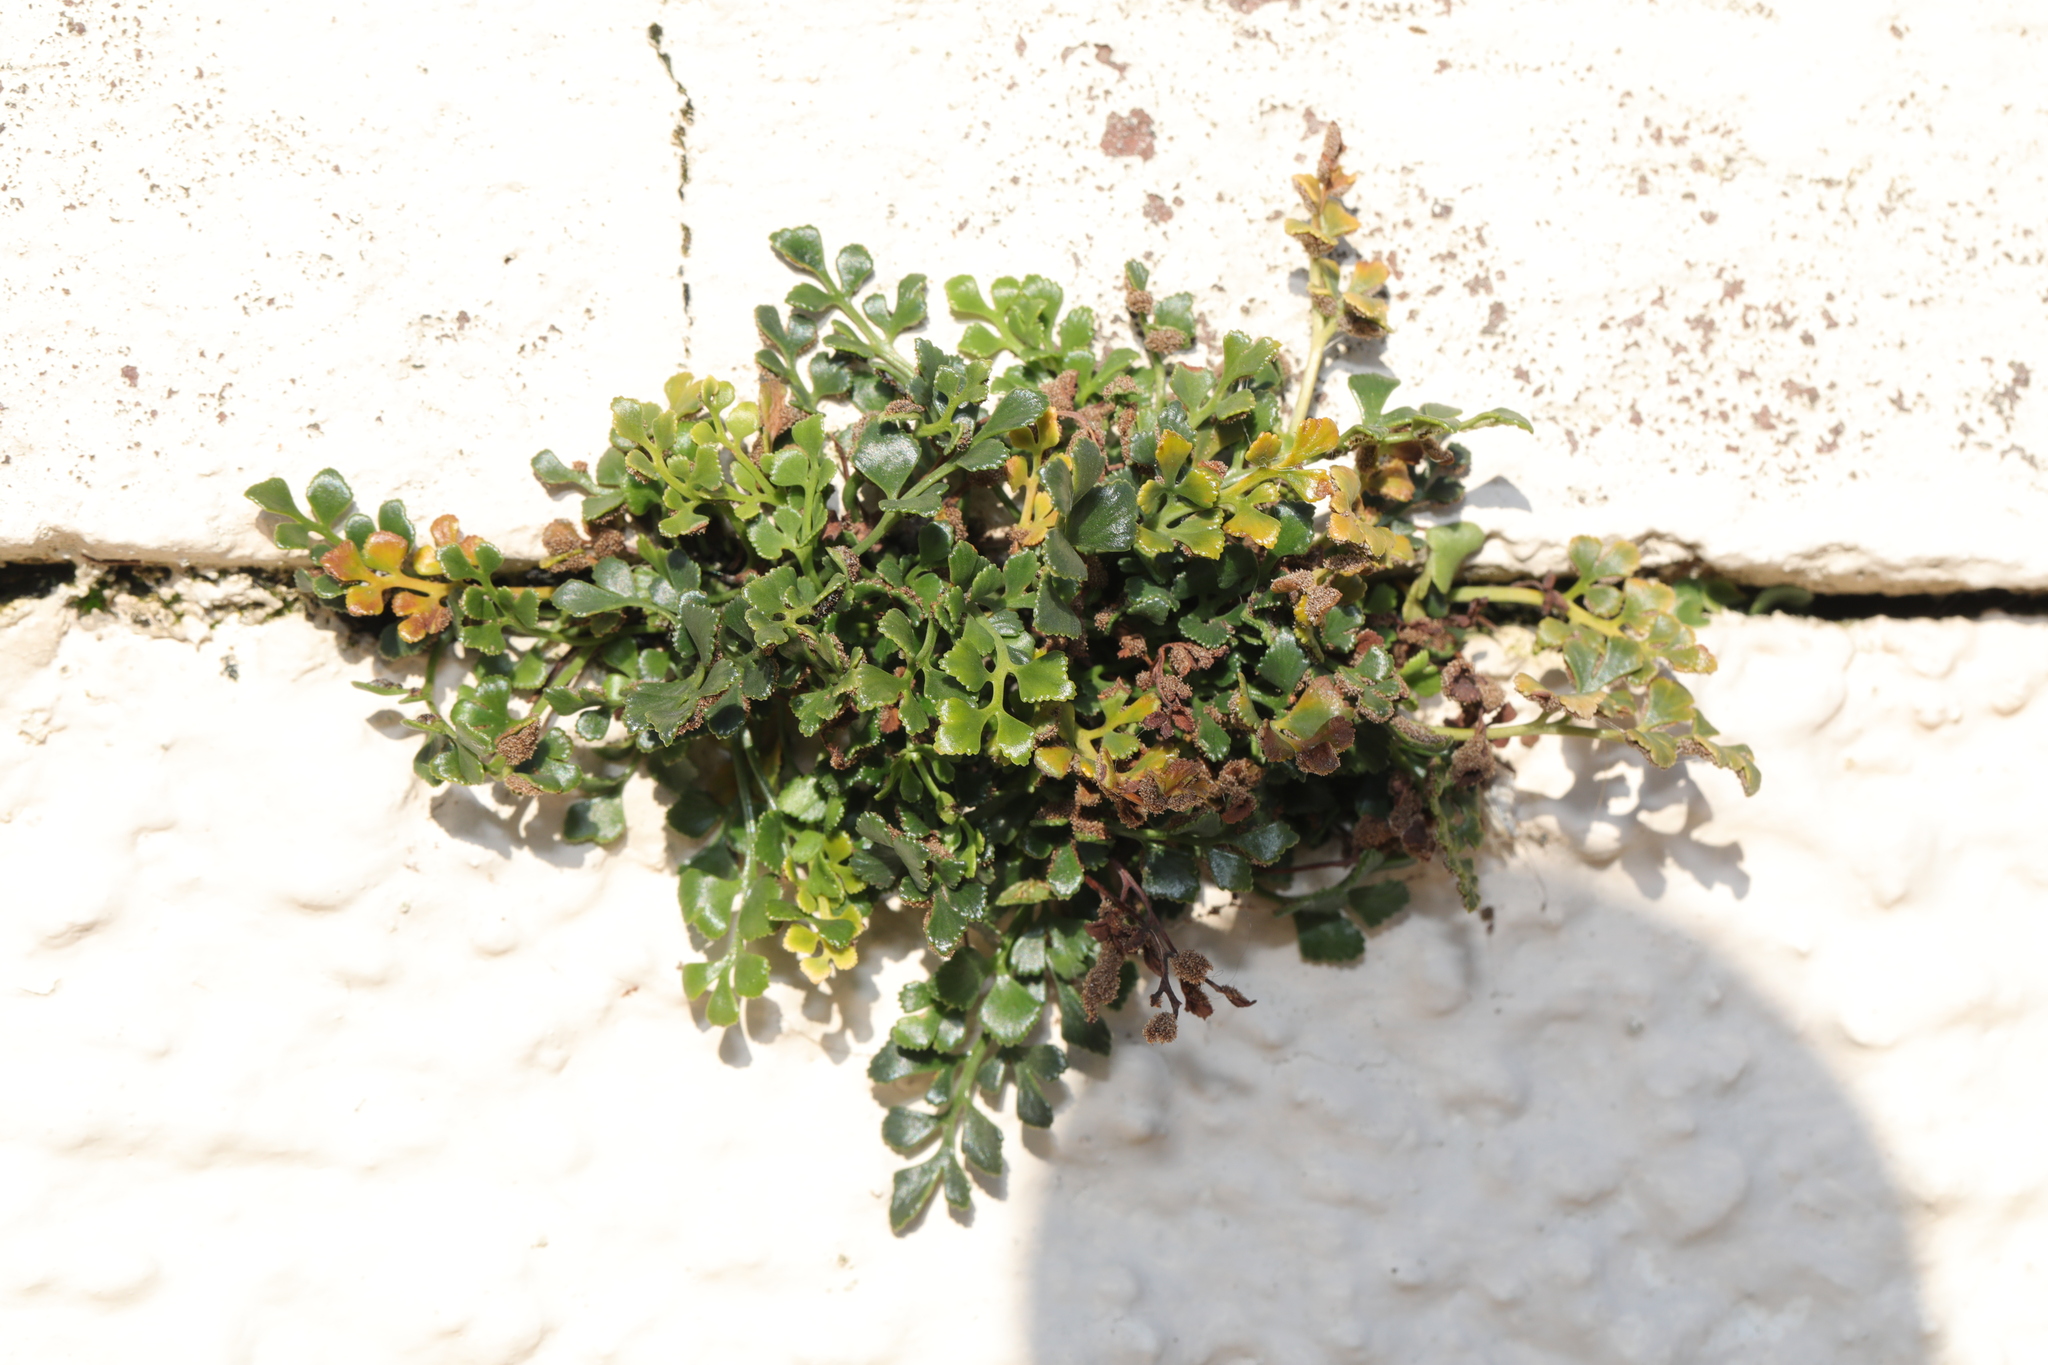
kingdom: Plantae
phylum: Tracheophyta
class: Polypodiopsida
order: Polypodiales
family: Aspleniaceae
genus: Asplenium
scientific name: Asplenium ruta-muraria
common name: Wall-rue
